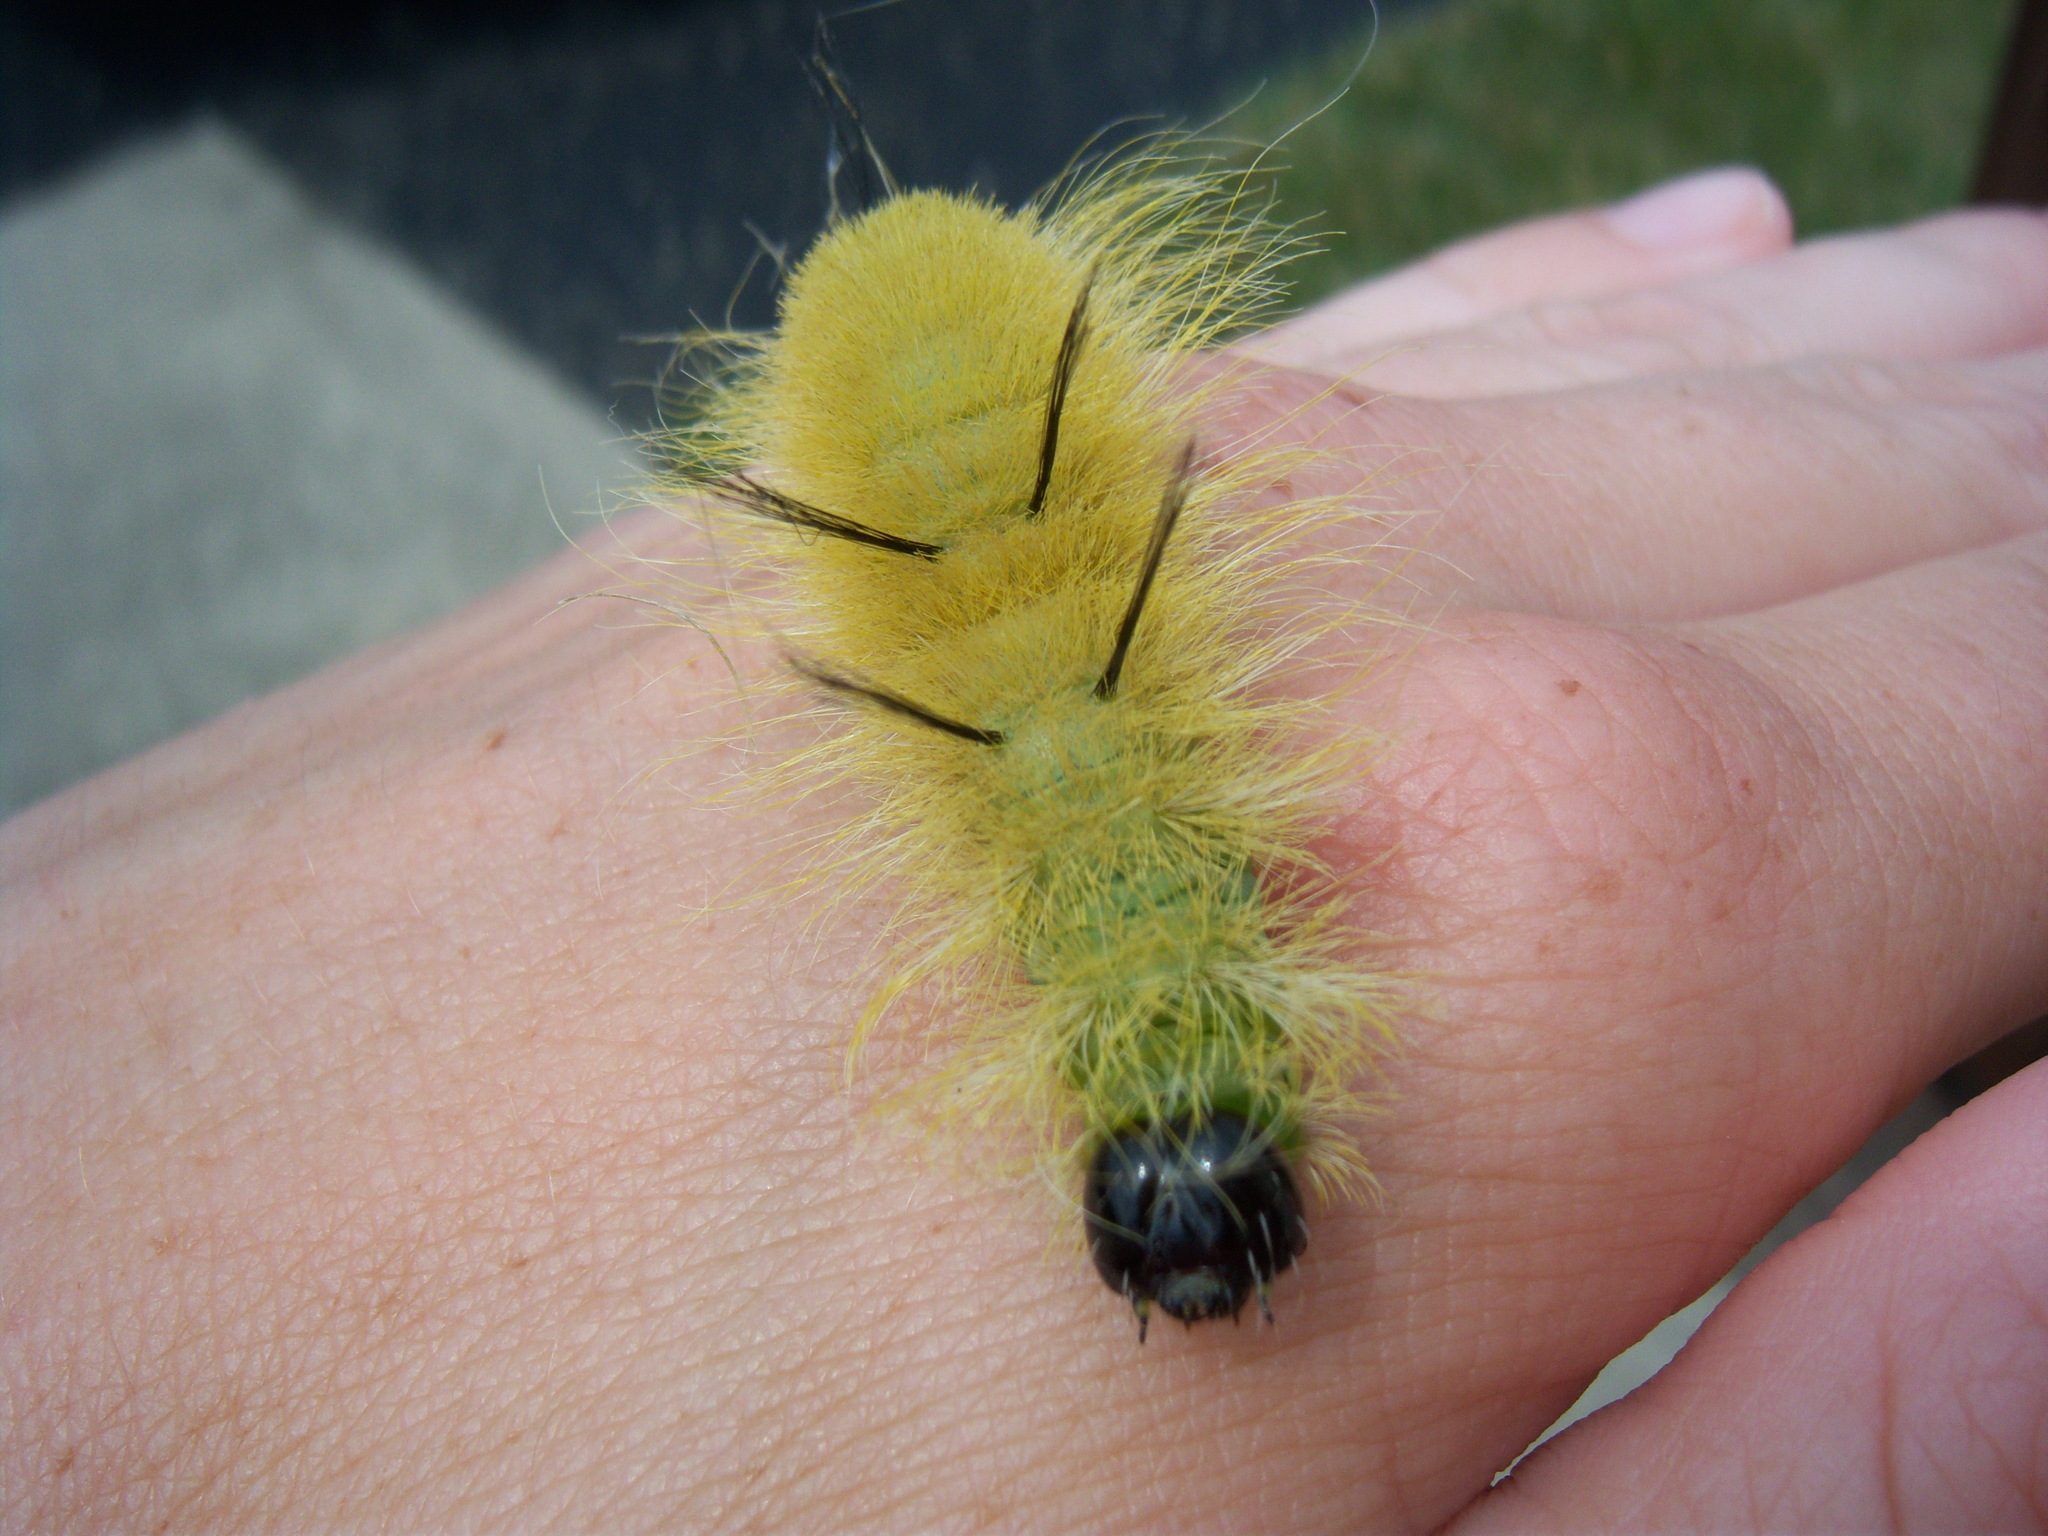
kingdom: Animalia
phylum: Arthropoda
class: Insecta
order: Lepidoptera
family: Noctuidae
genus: Acronicta
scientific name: Acronicta americana
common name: American dagger
